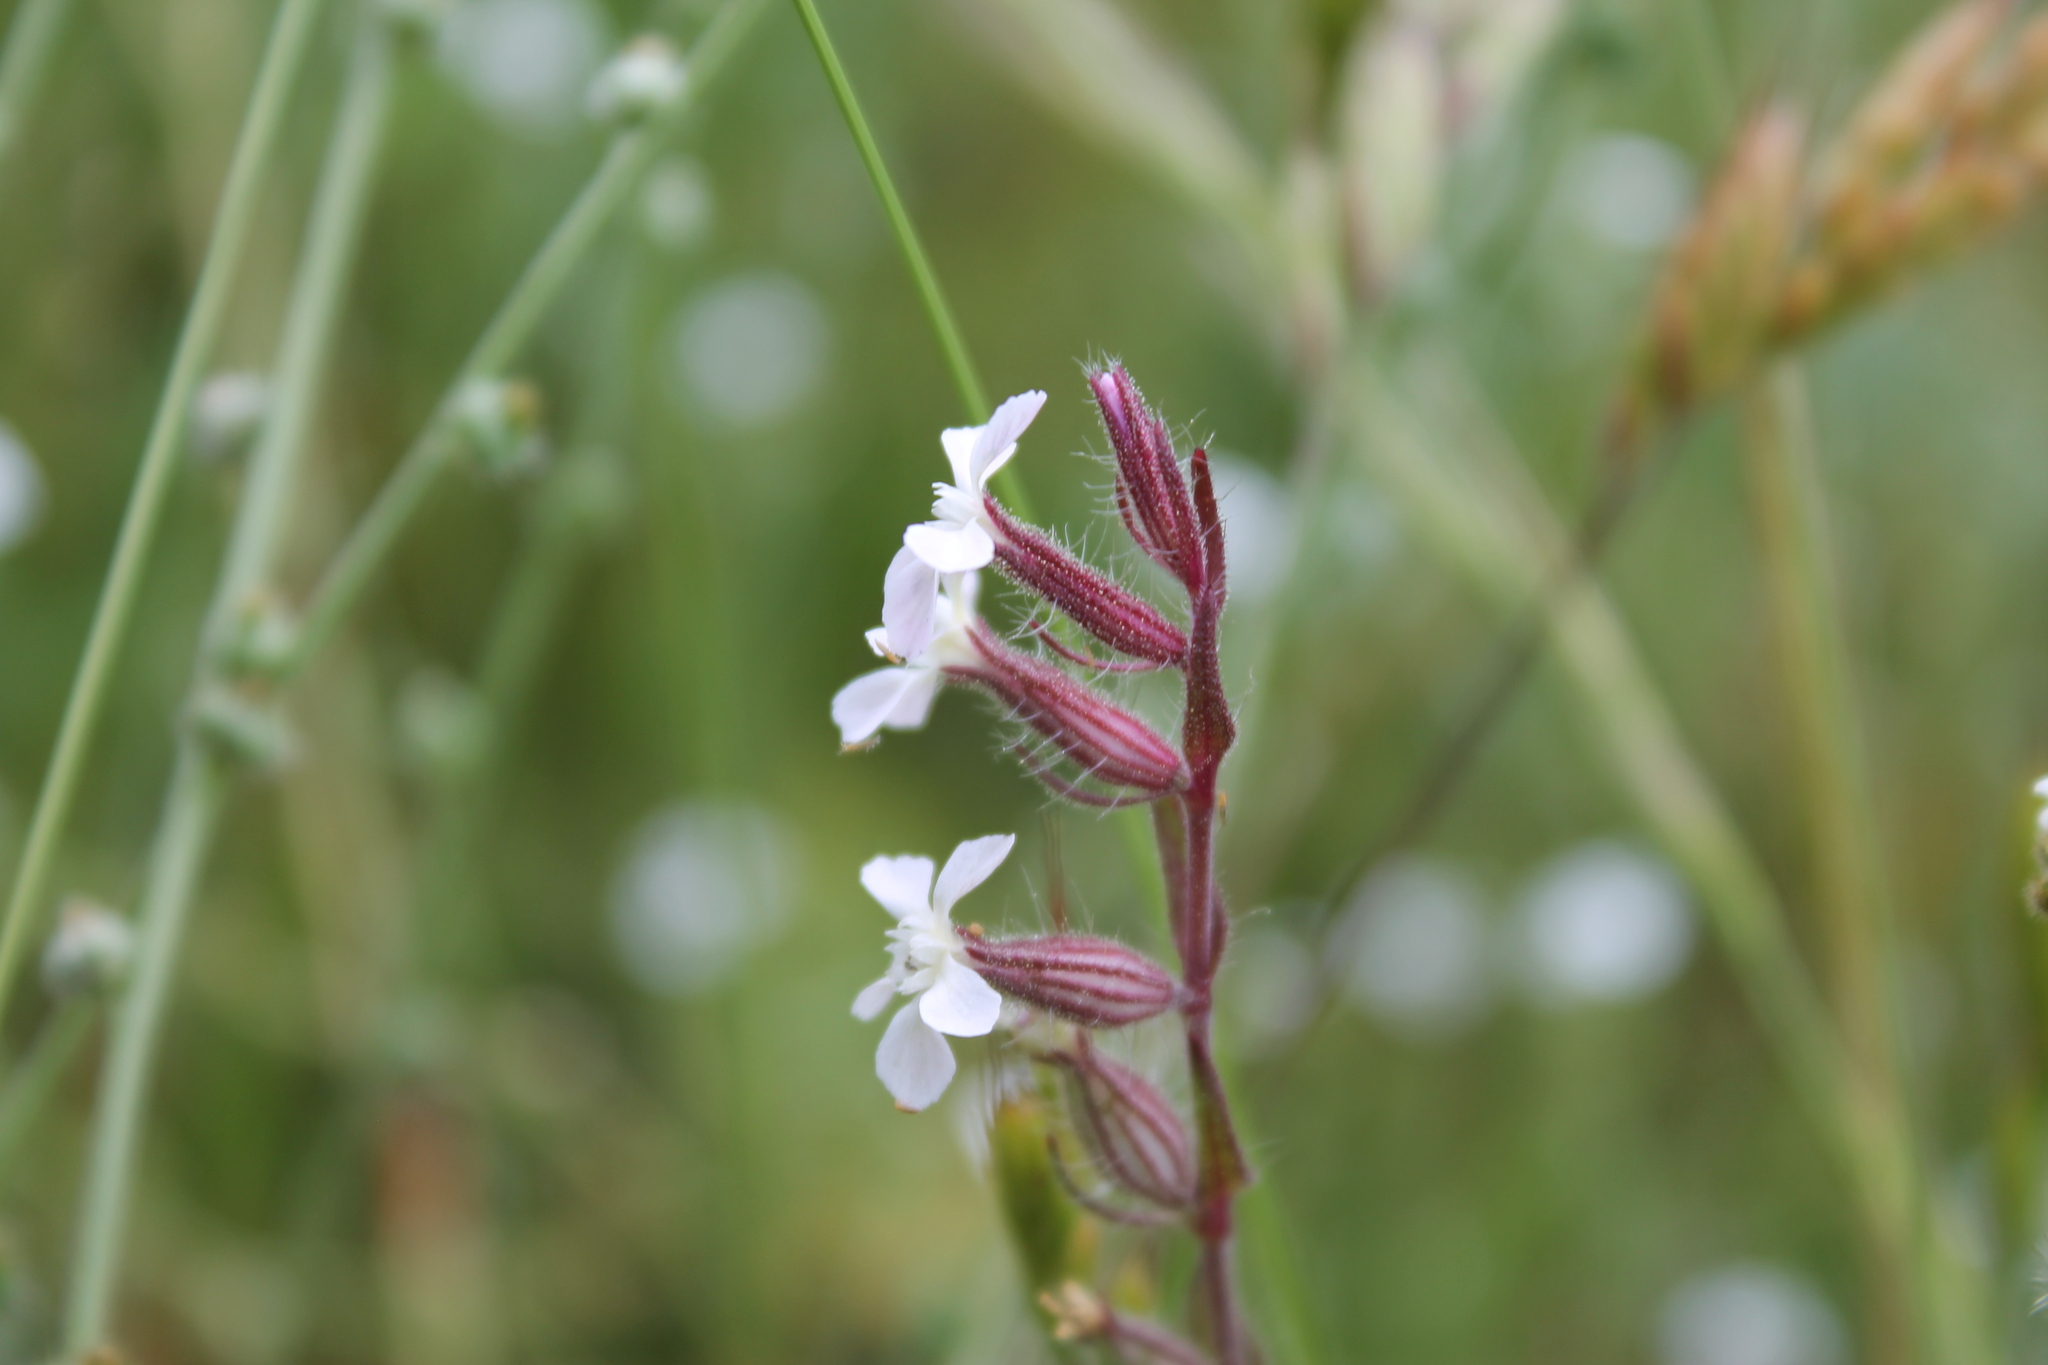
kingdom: Plantae
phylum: Tracheophyta
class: Magnoliopsida
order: Caryophyllales
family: Caryophyllaceae
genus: Silene
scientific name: Silene gallica
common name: Small-flowered catchfly
